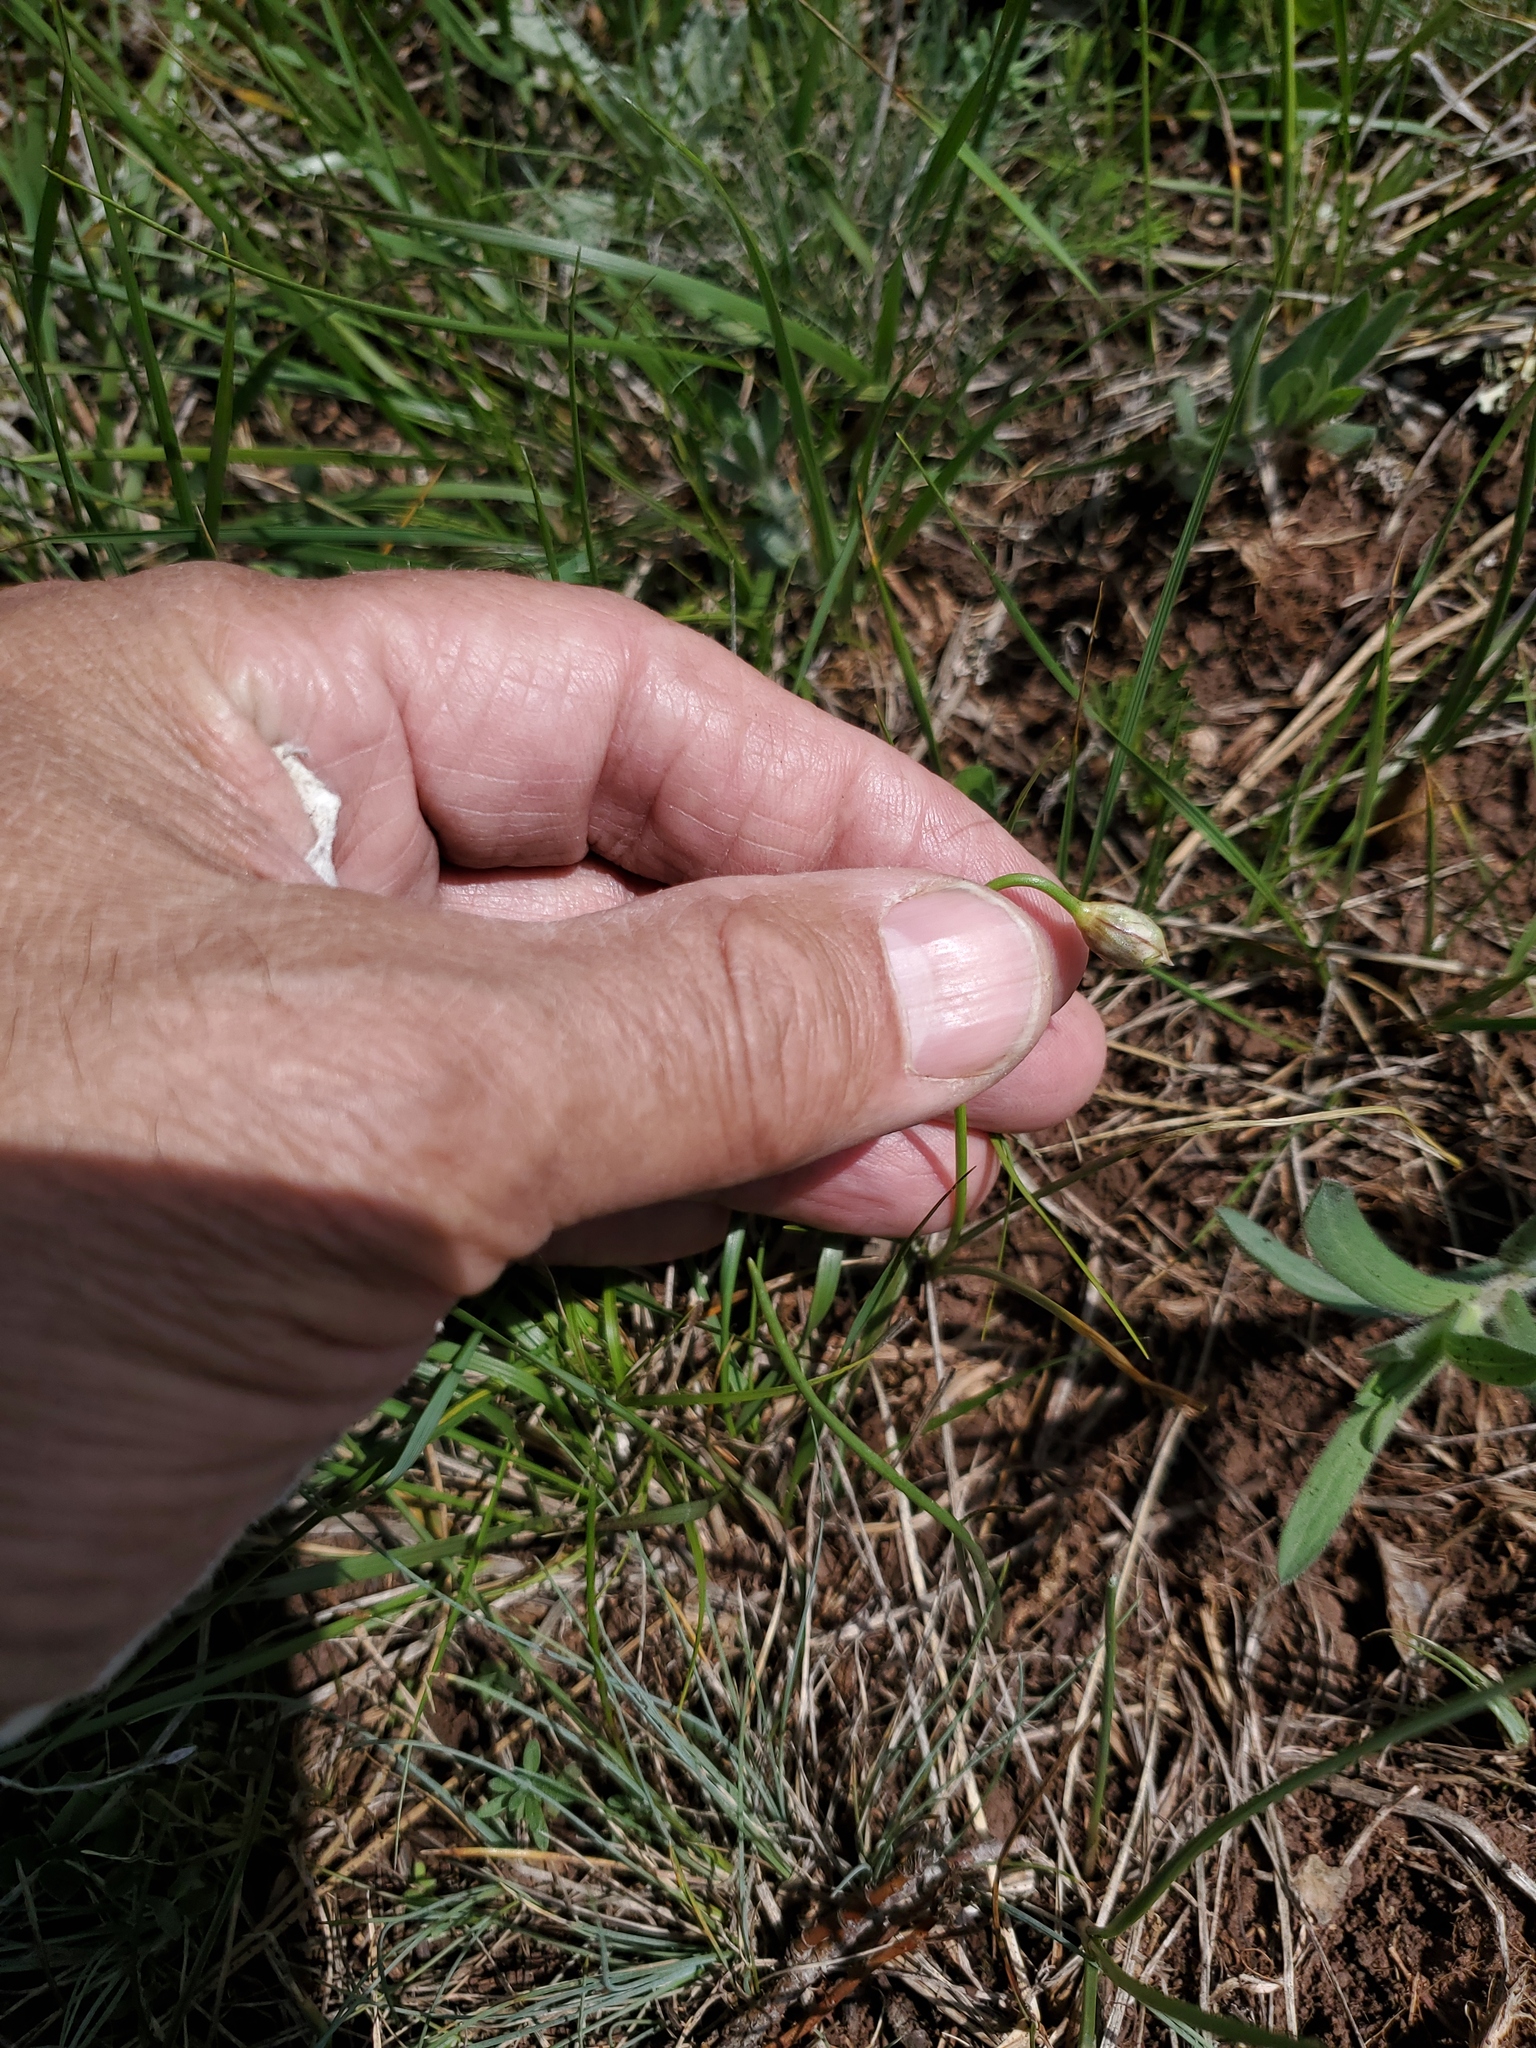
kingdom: Plantae
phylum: Tracheophyta
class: Liliopsida
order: Asparagales
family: Amaryllidaceae
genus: Allium
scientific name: Allium textile
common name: Prairie onion
